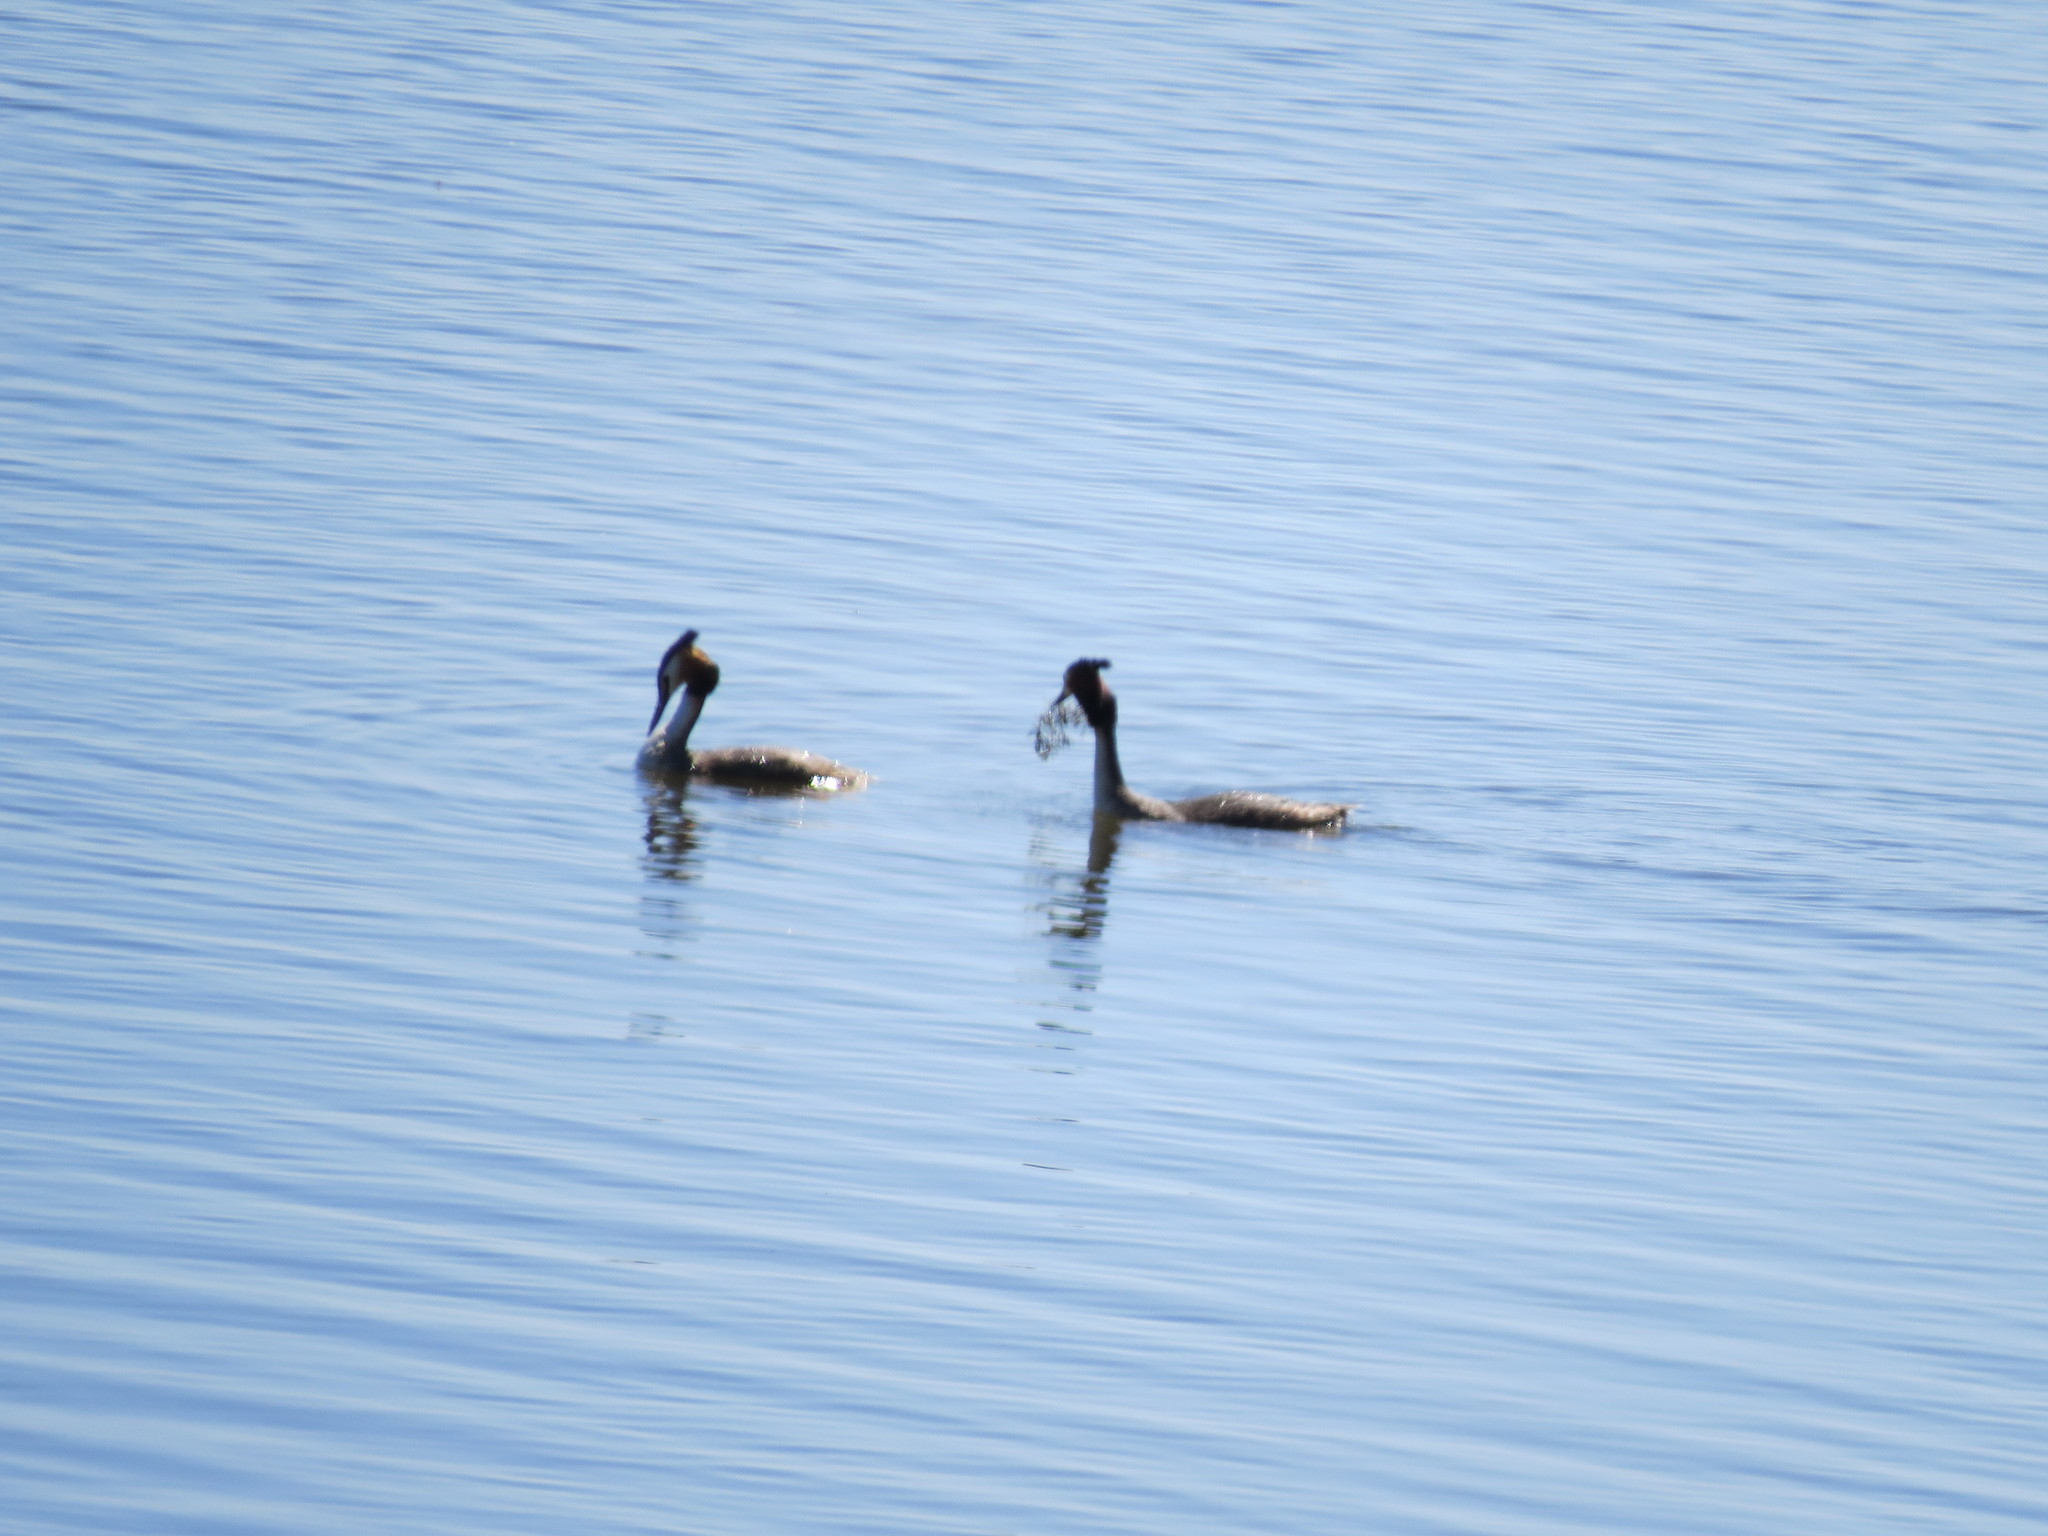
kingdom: Animalia
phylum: Chordata
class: Aves
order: Podicipediformes
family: Podicipedidae
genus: Podiceps
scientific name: Podiceps cristatus
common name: Great crested grebe
